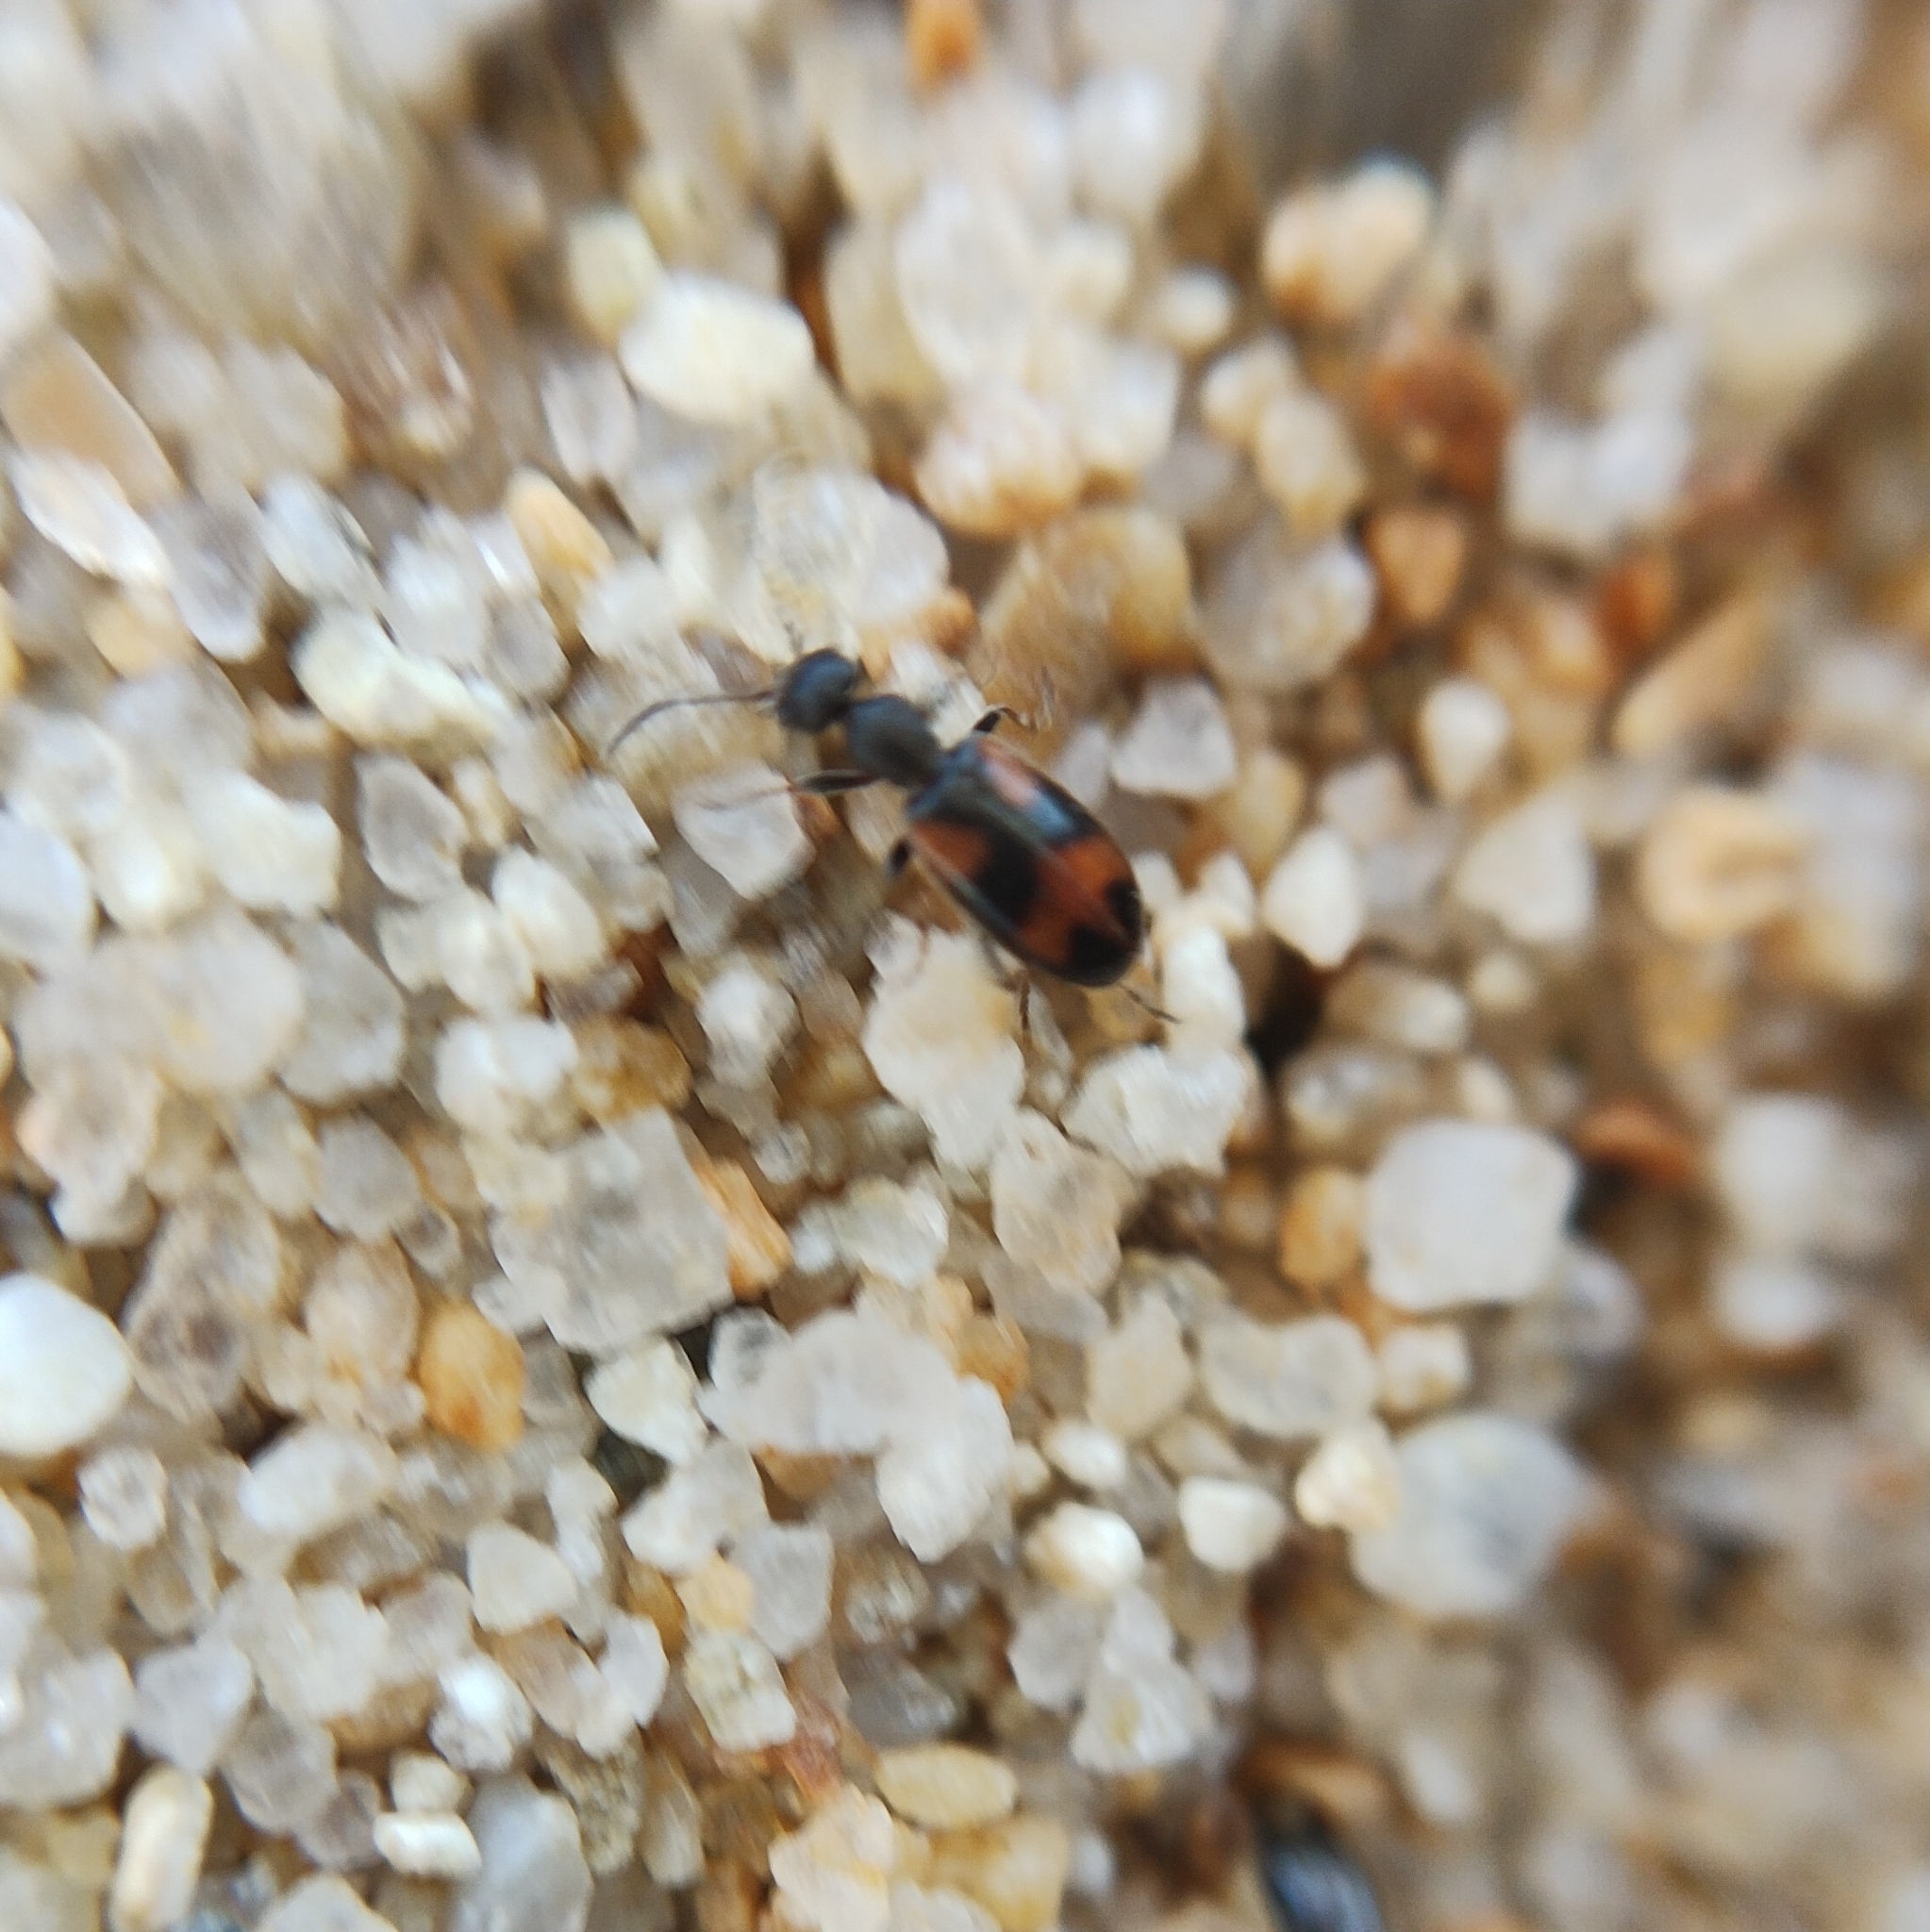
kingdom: Animalia
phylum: Arthropoda
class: Insecta
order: Coleoptera
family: Anthicidae
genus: Anthicus
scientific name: Anthicus antherinus
